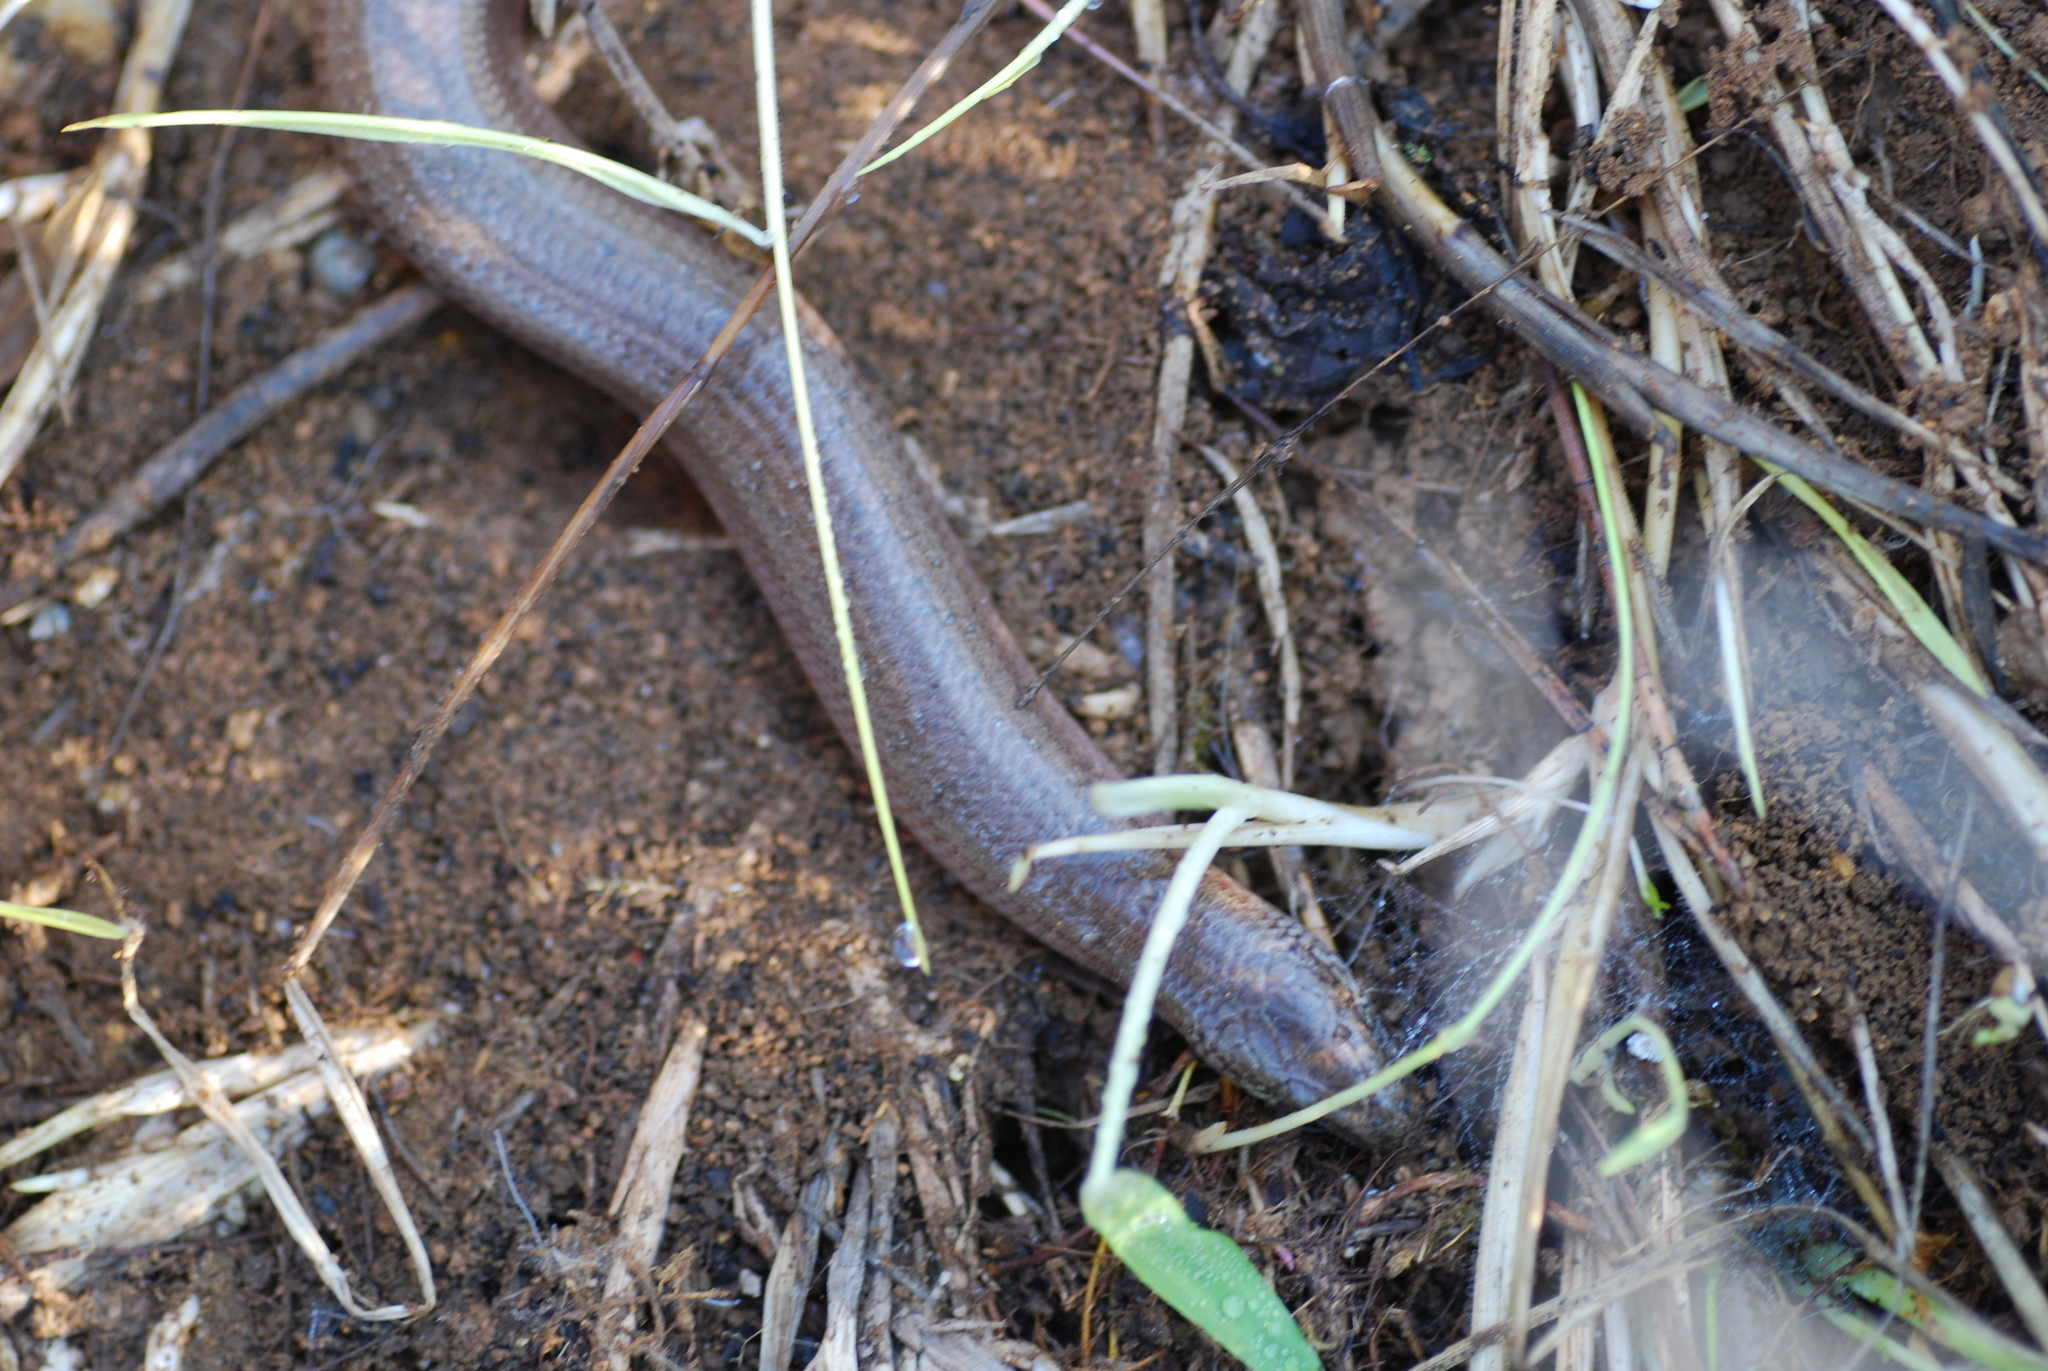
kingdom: Animalia
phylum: Chordata
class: Squamata
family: Anguidae
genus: Anguis
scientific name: Anguis fragilis
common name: Slow worm
